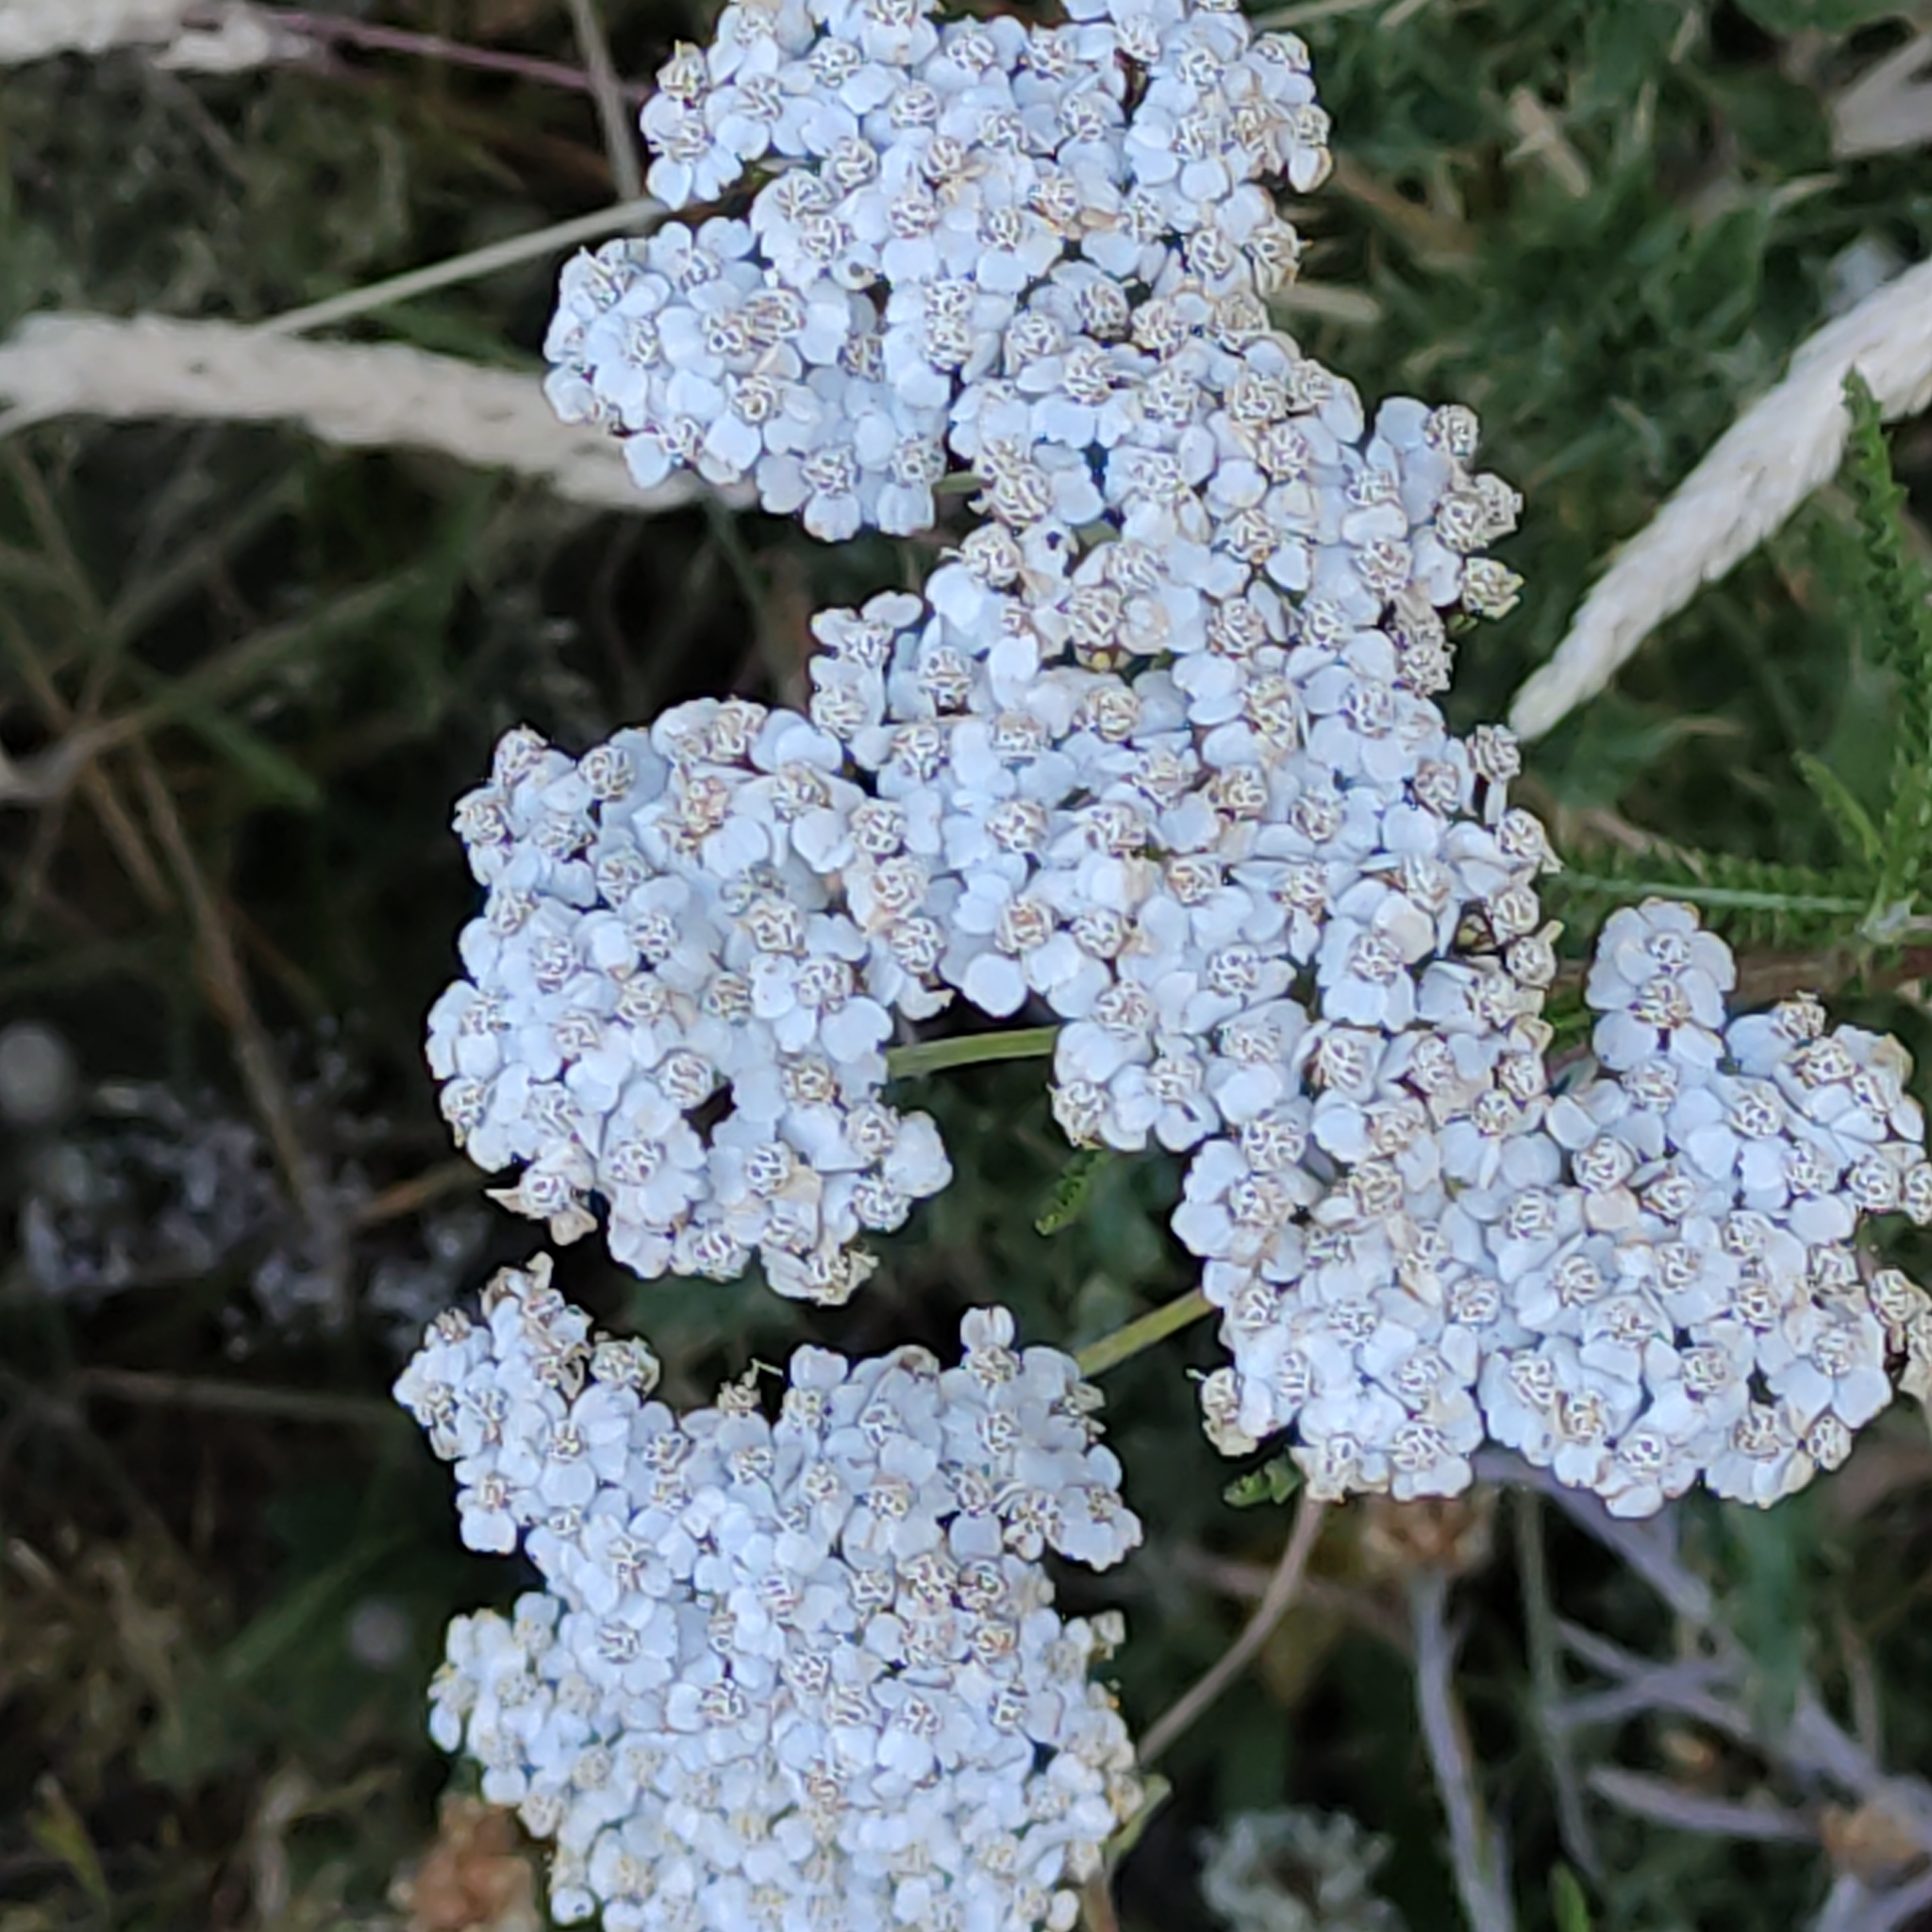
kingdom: Plantae
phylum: Tracheophyta
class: Magnoliopsida
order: Asterales
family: Asteraceae
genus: Achillea
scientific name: Achillea millefolium
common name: Yarrow
